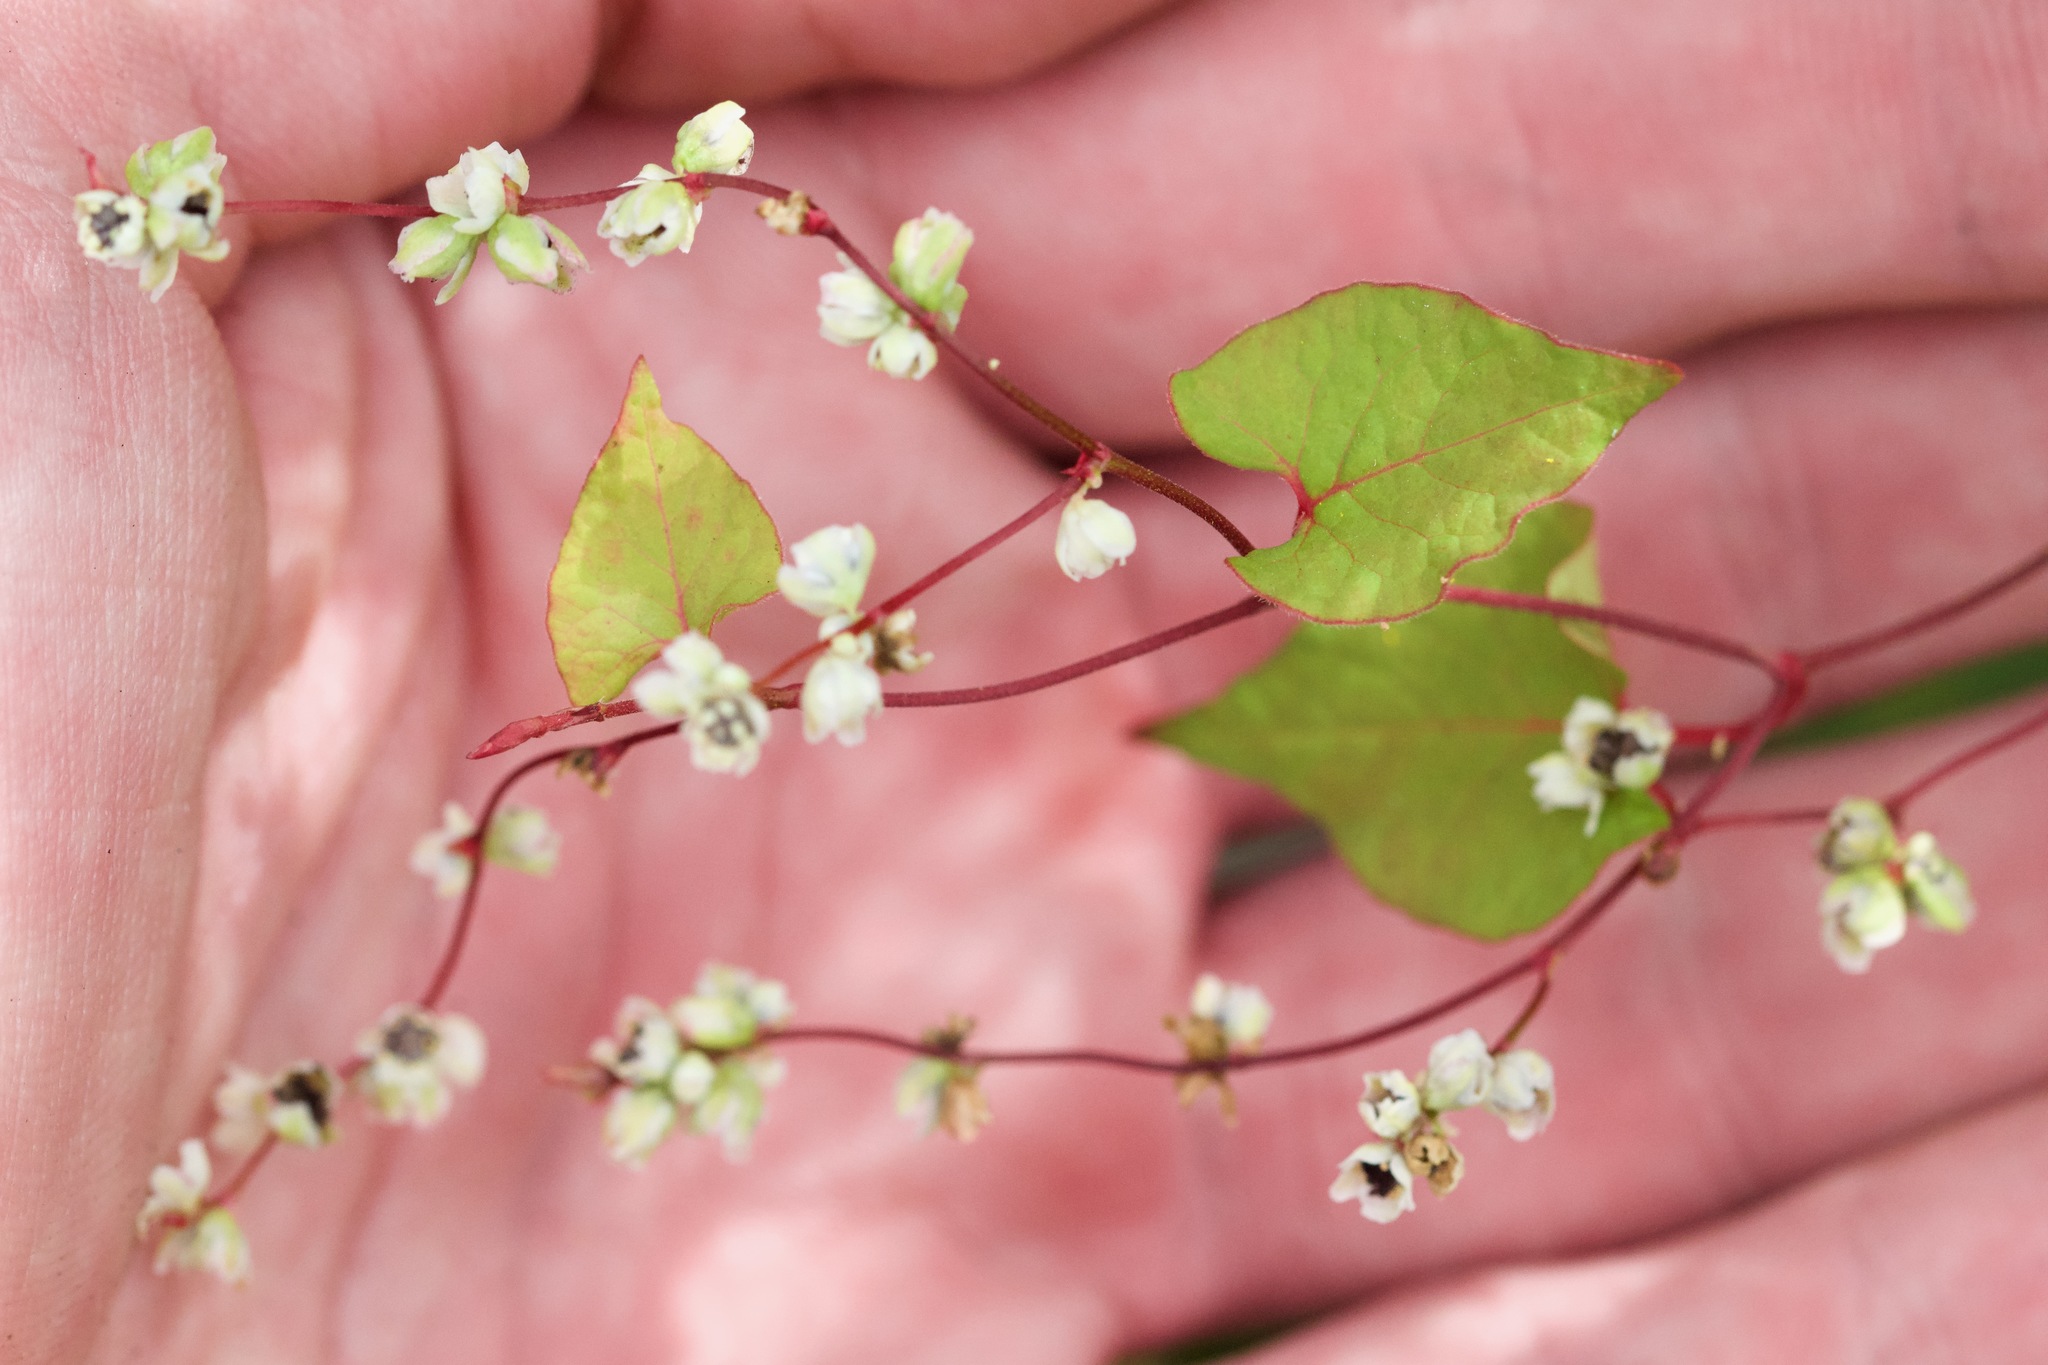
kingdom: Plantae
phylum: Tracheophyta
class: Magnoliopsida
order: Caryophyllales
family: Polygonaceae
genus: Parogonum
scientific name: Parogonum ciliinode
